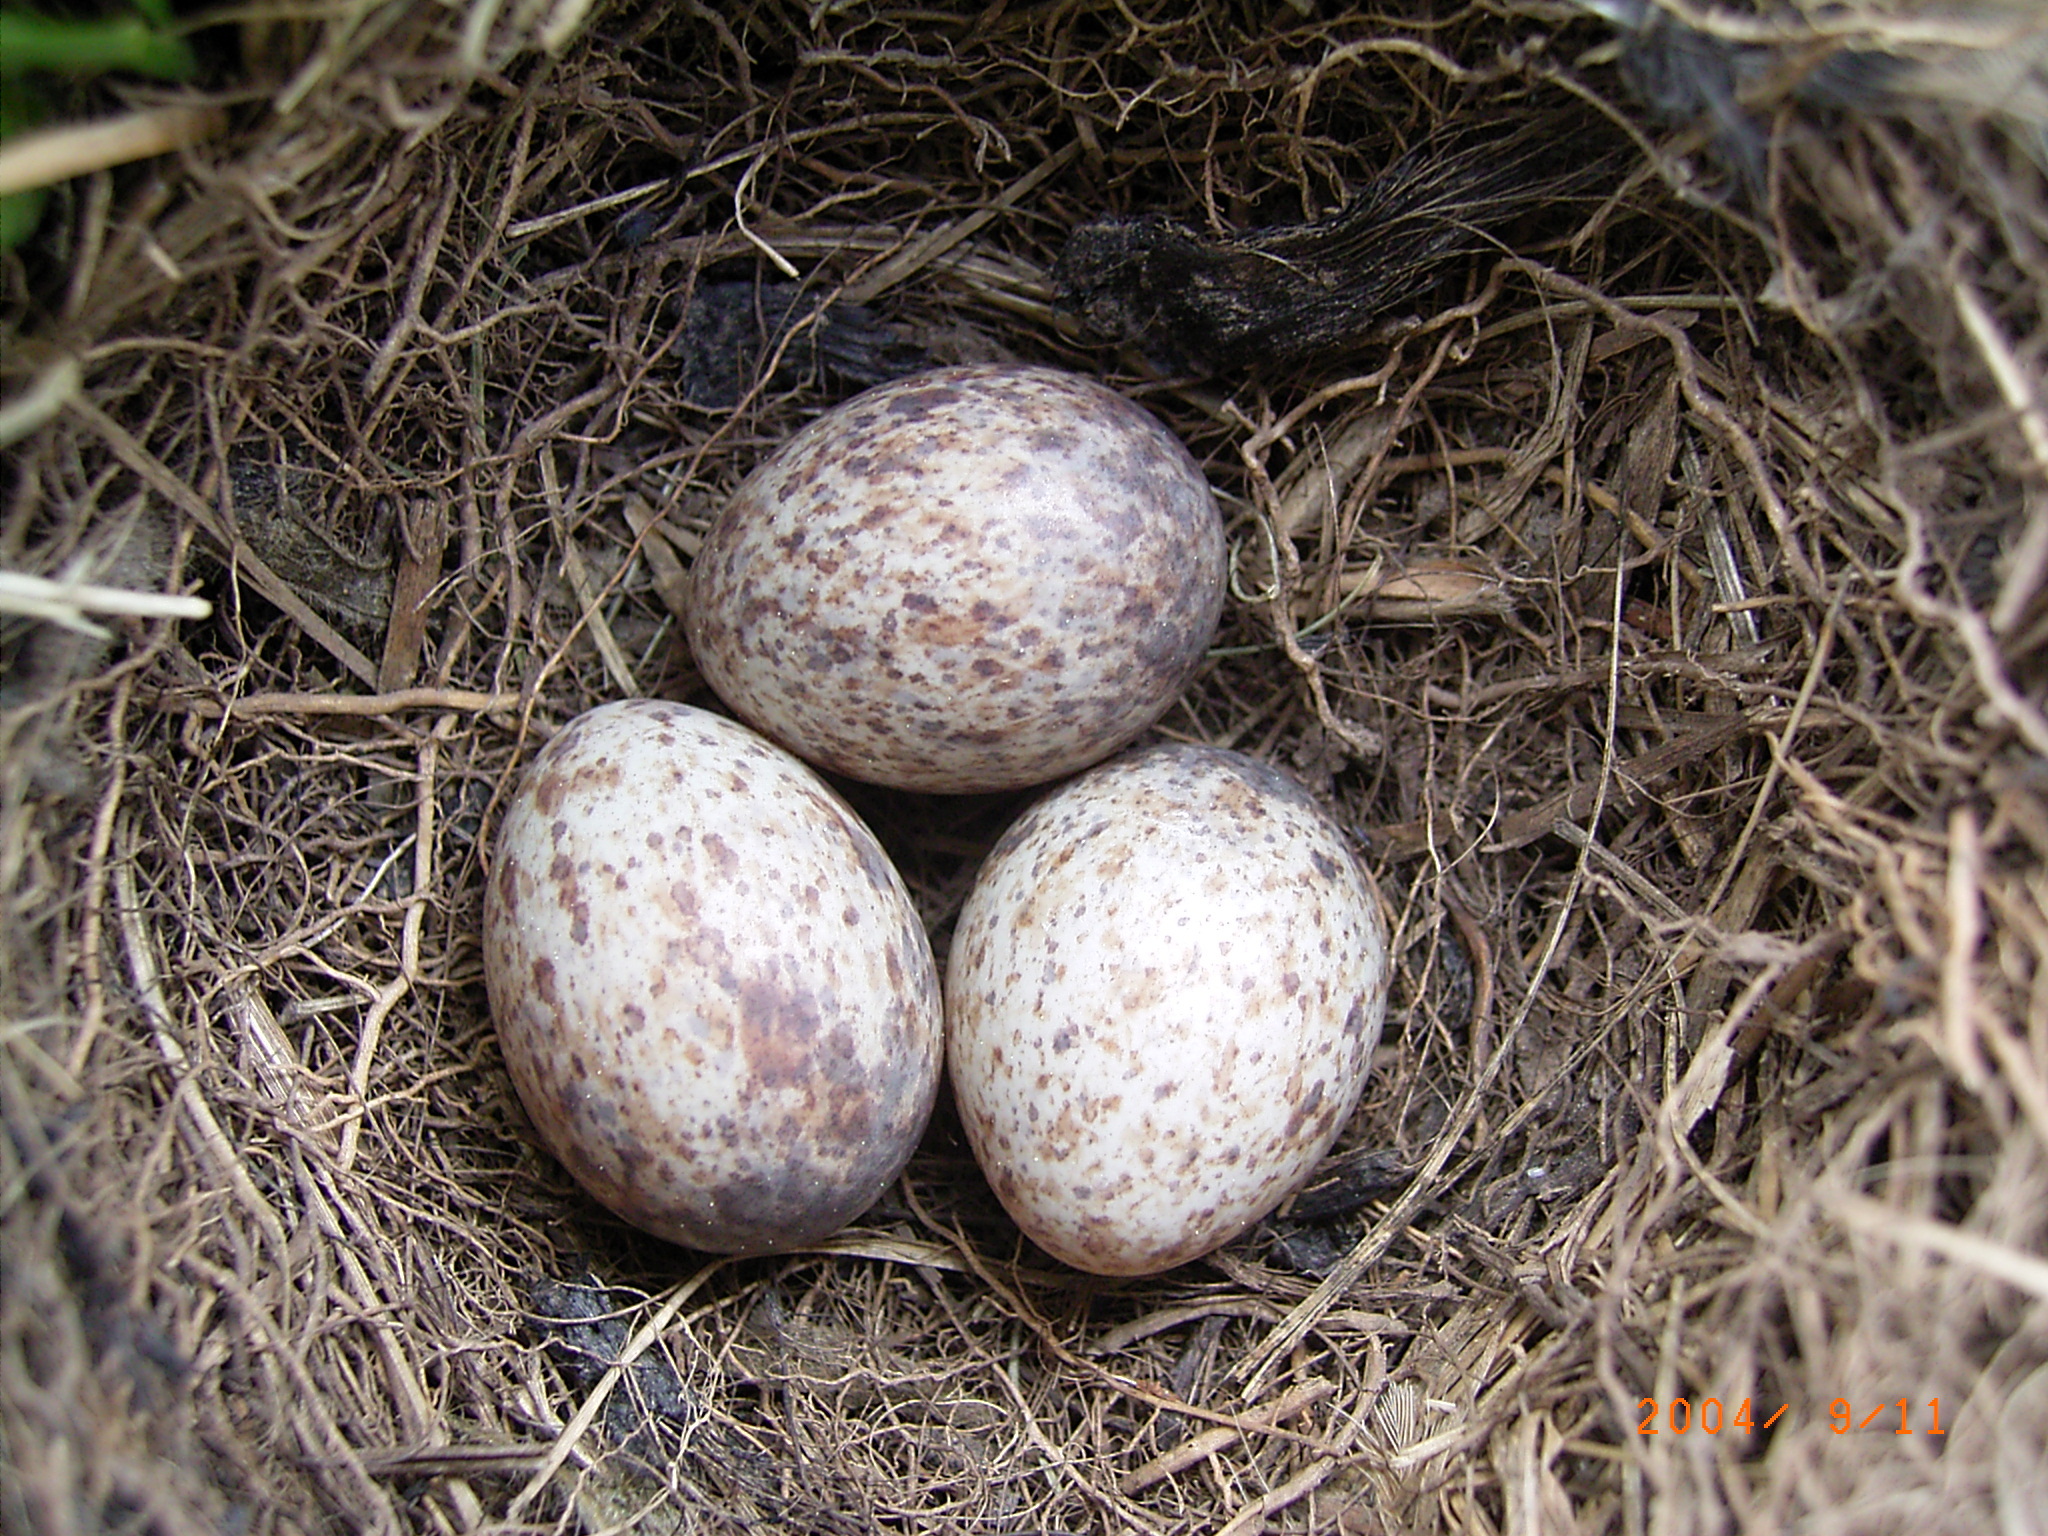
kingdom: Animalia
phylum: Chordata
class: Aves
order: Passeriformes
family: Motacillidae
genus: Anthus
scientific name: Anthus cinnamomeus
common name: African pipit
